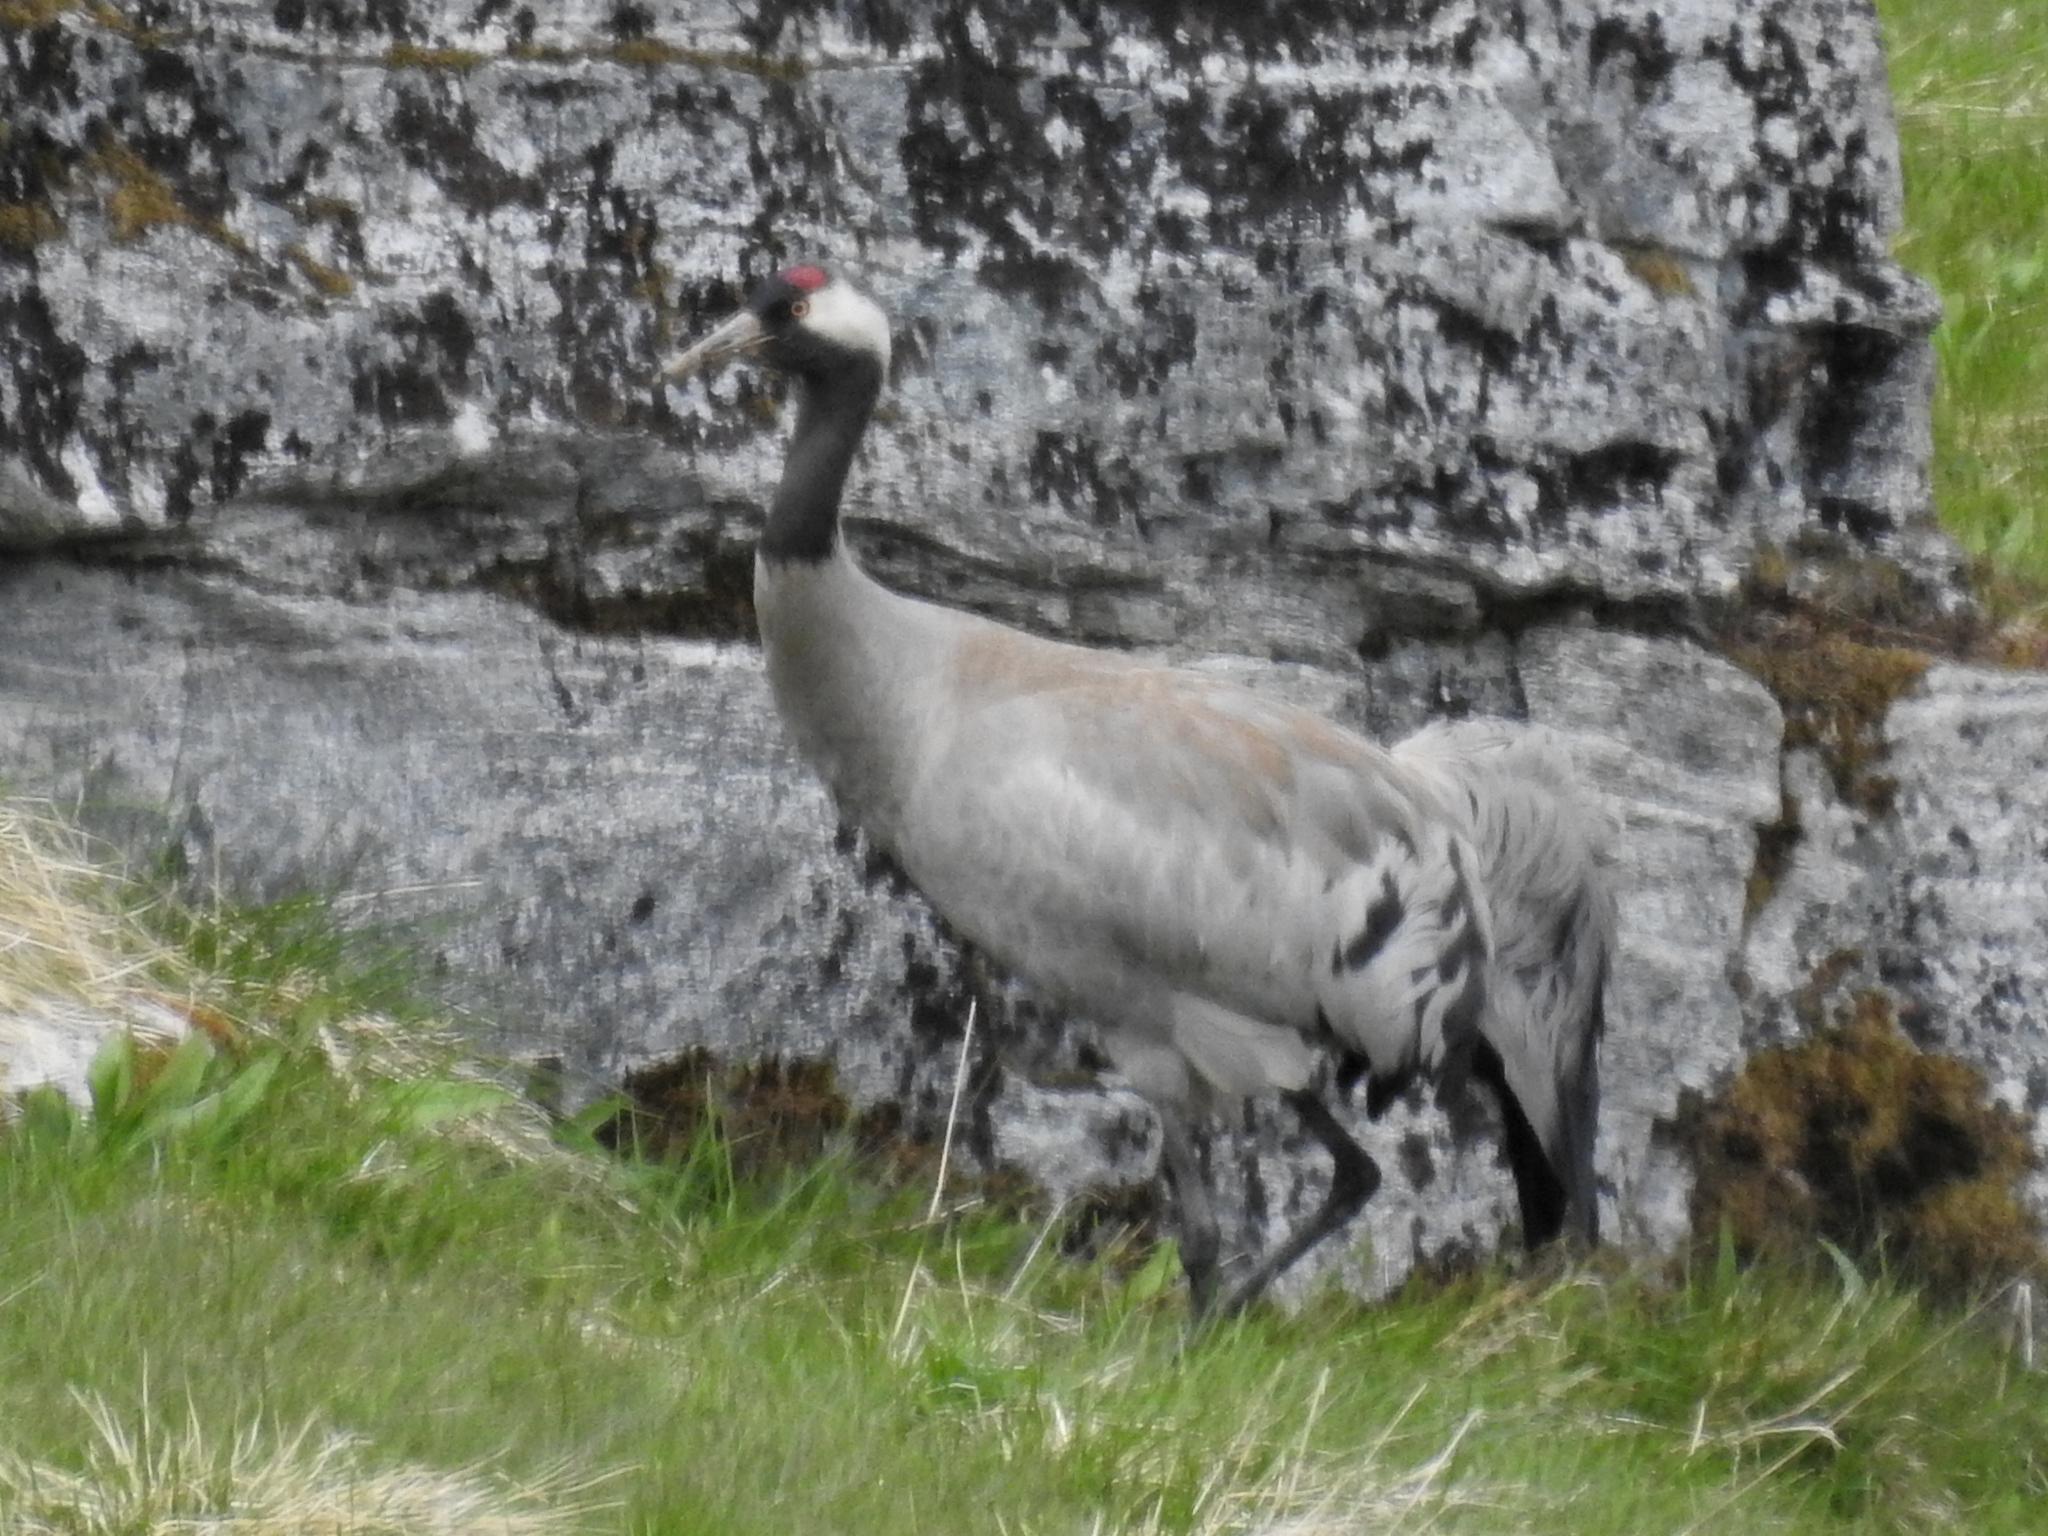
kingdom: Animalia
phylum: Chordata
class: Aves
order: Gruiformes
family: Gruidae
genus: Grus
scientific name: Grus grus
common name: Common crane
